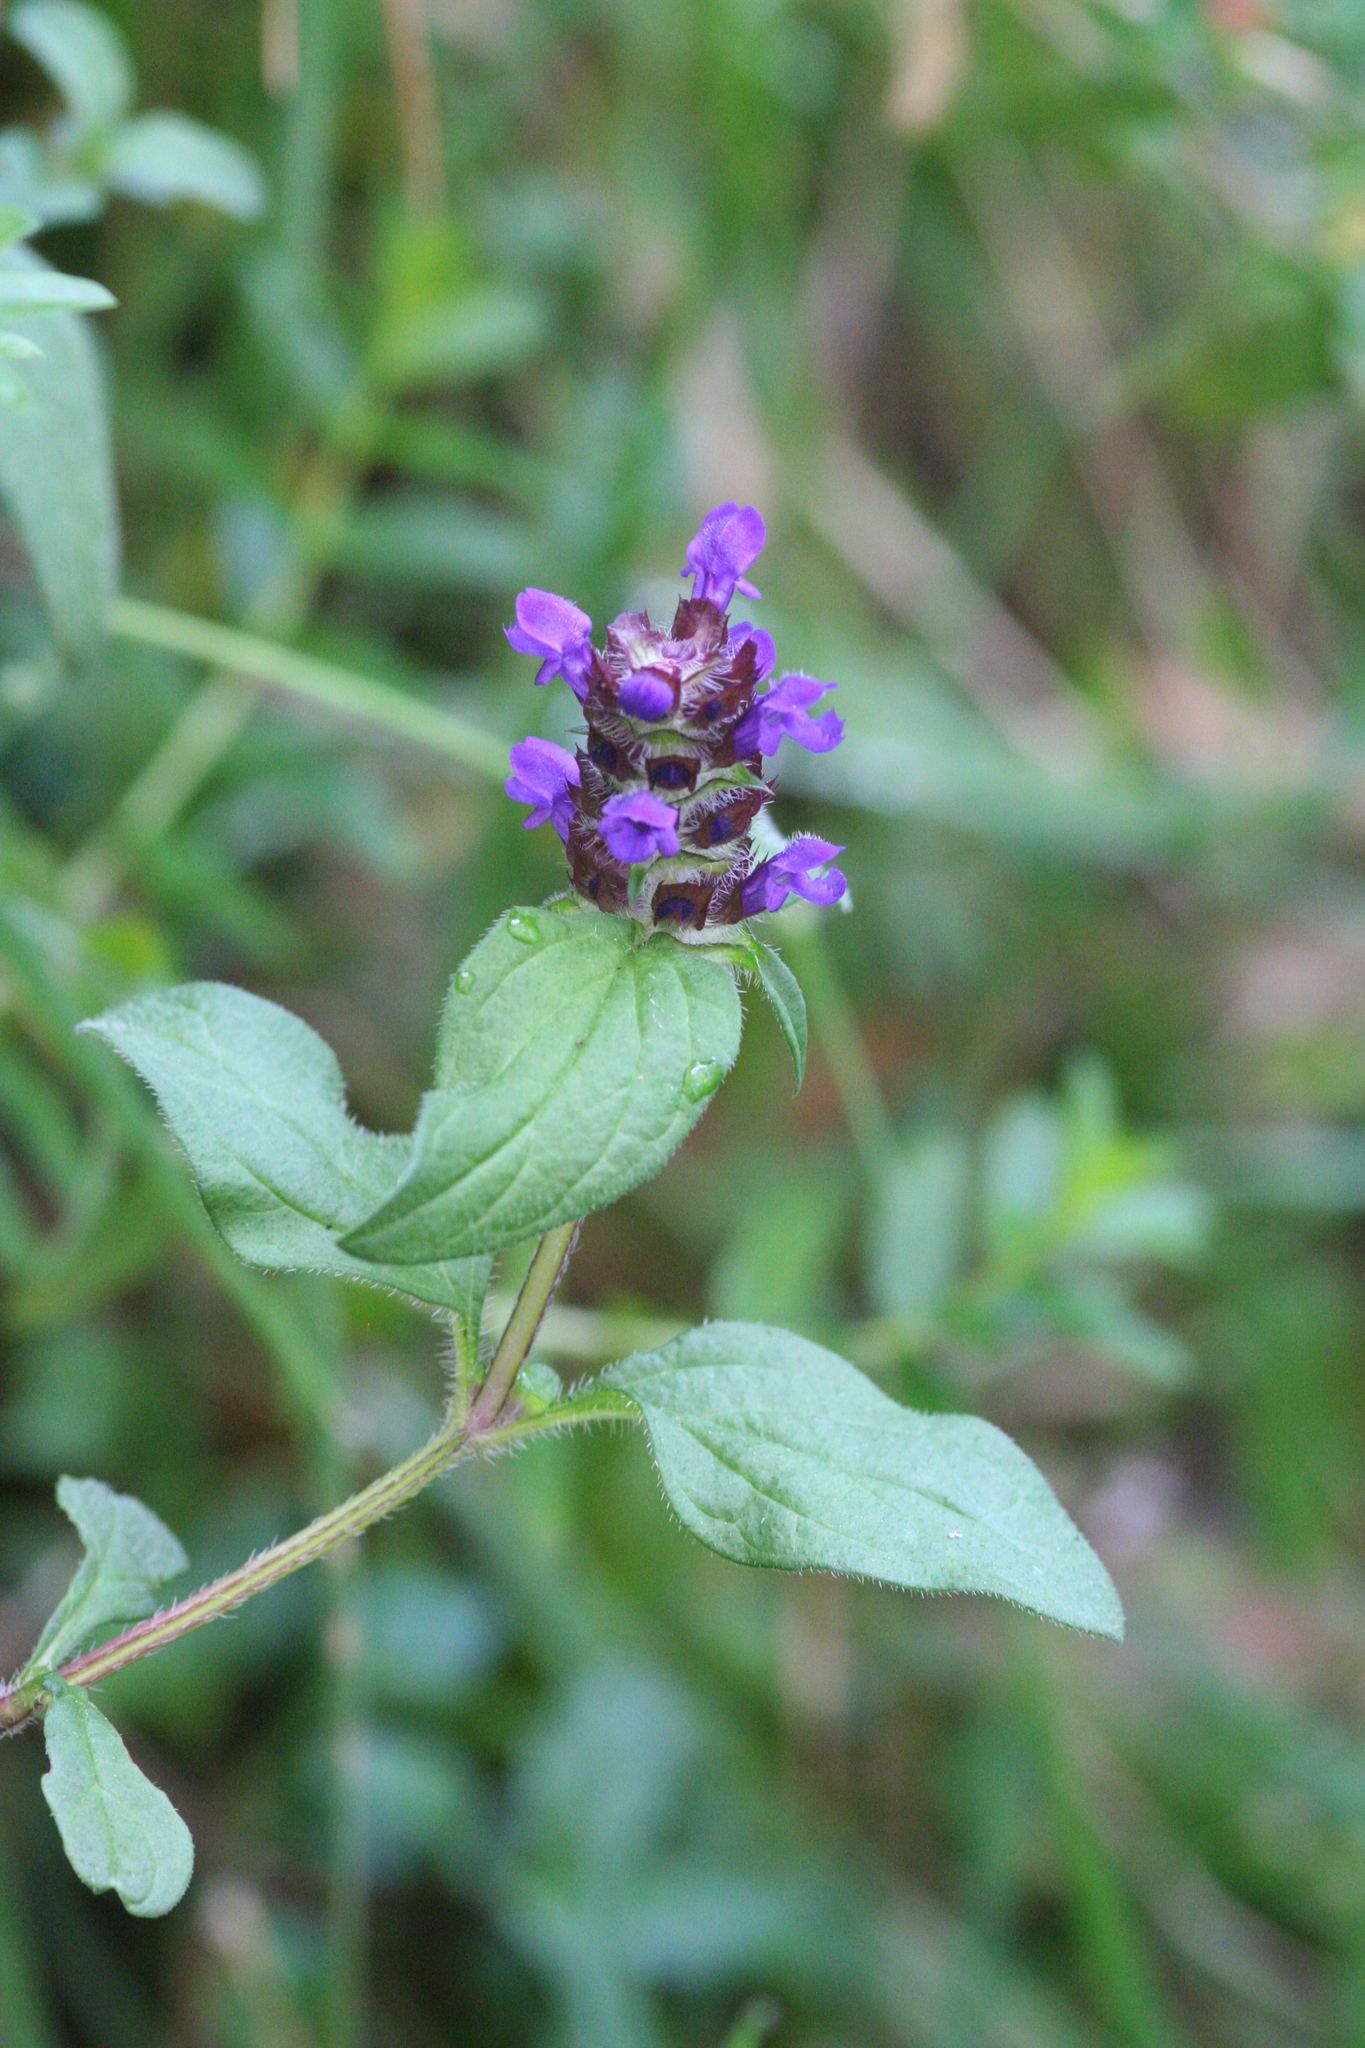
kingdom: Plantae
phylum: Tracheophyta
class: Magnoliopsida
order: Lamiales
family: Lamiaceae
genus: Prunella
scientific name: Prunella vulgaris
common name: Heal-all
